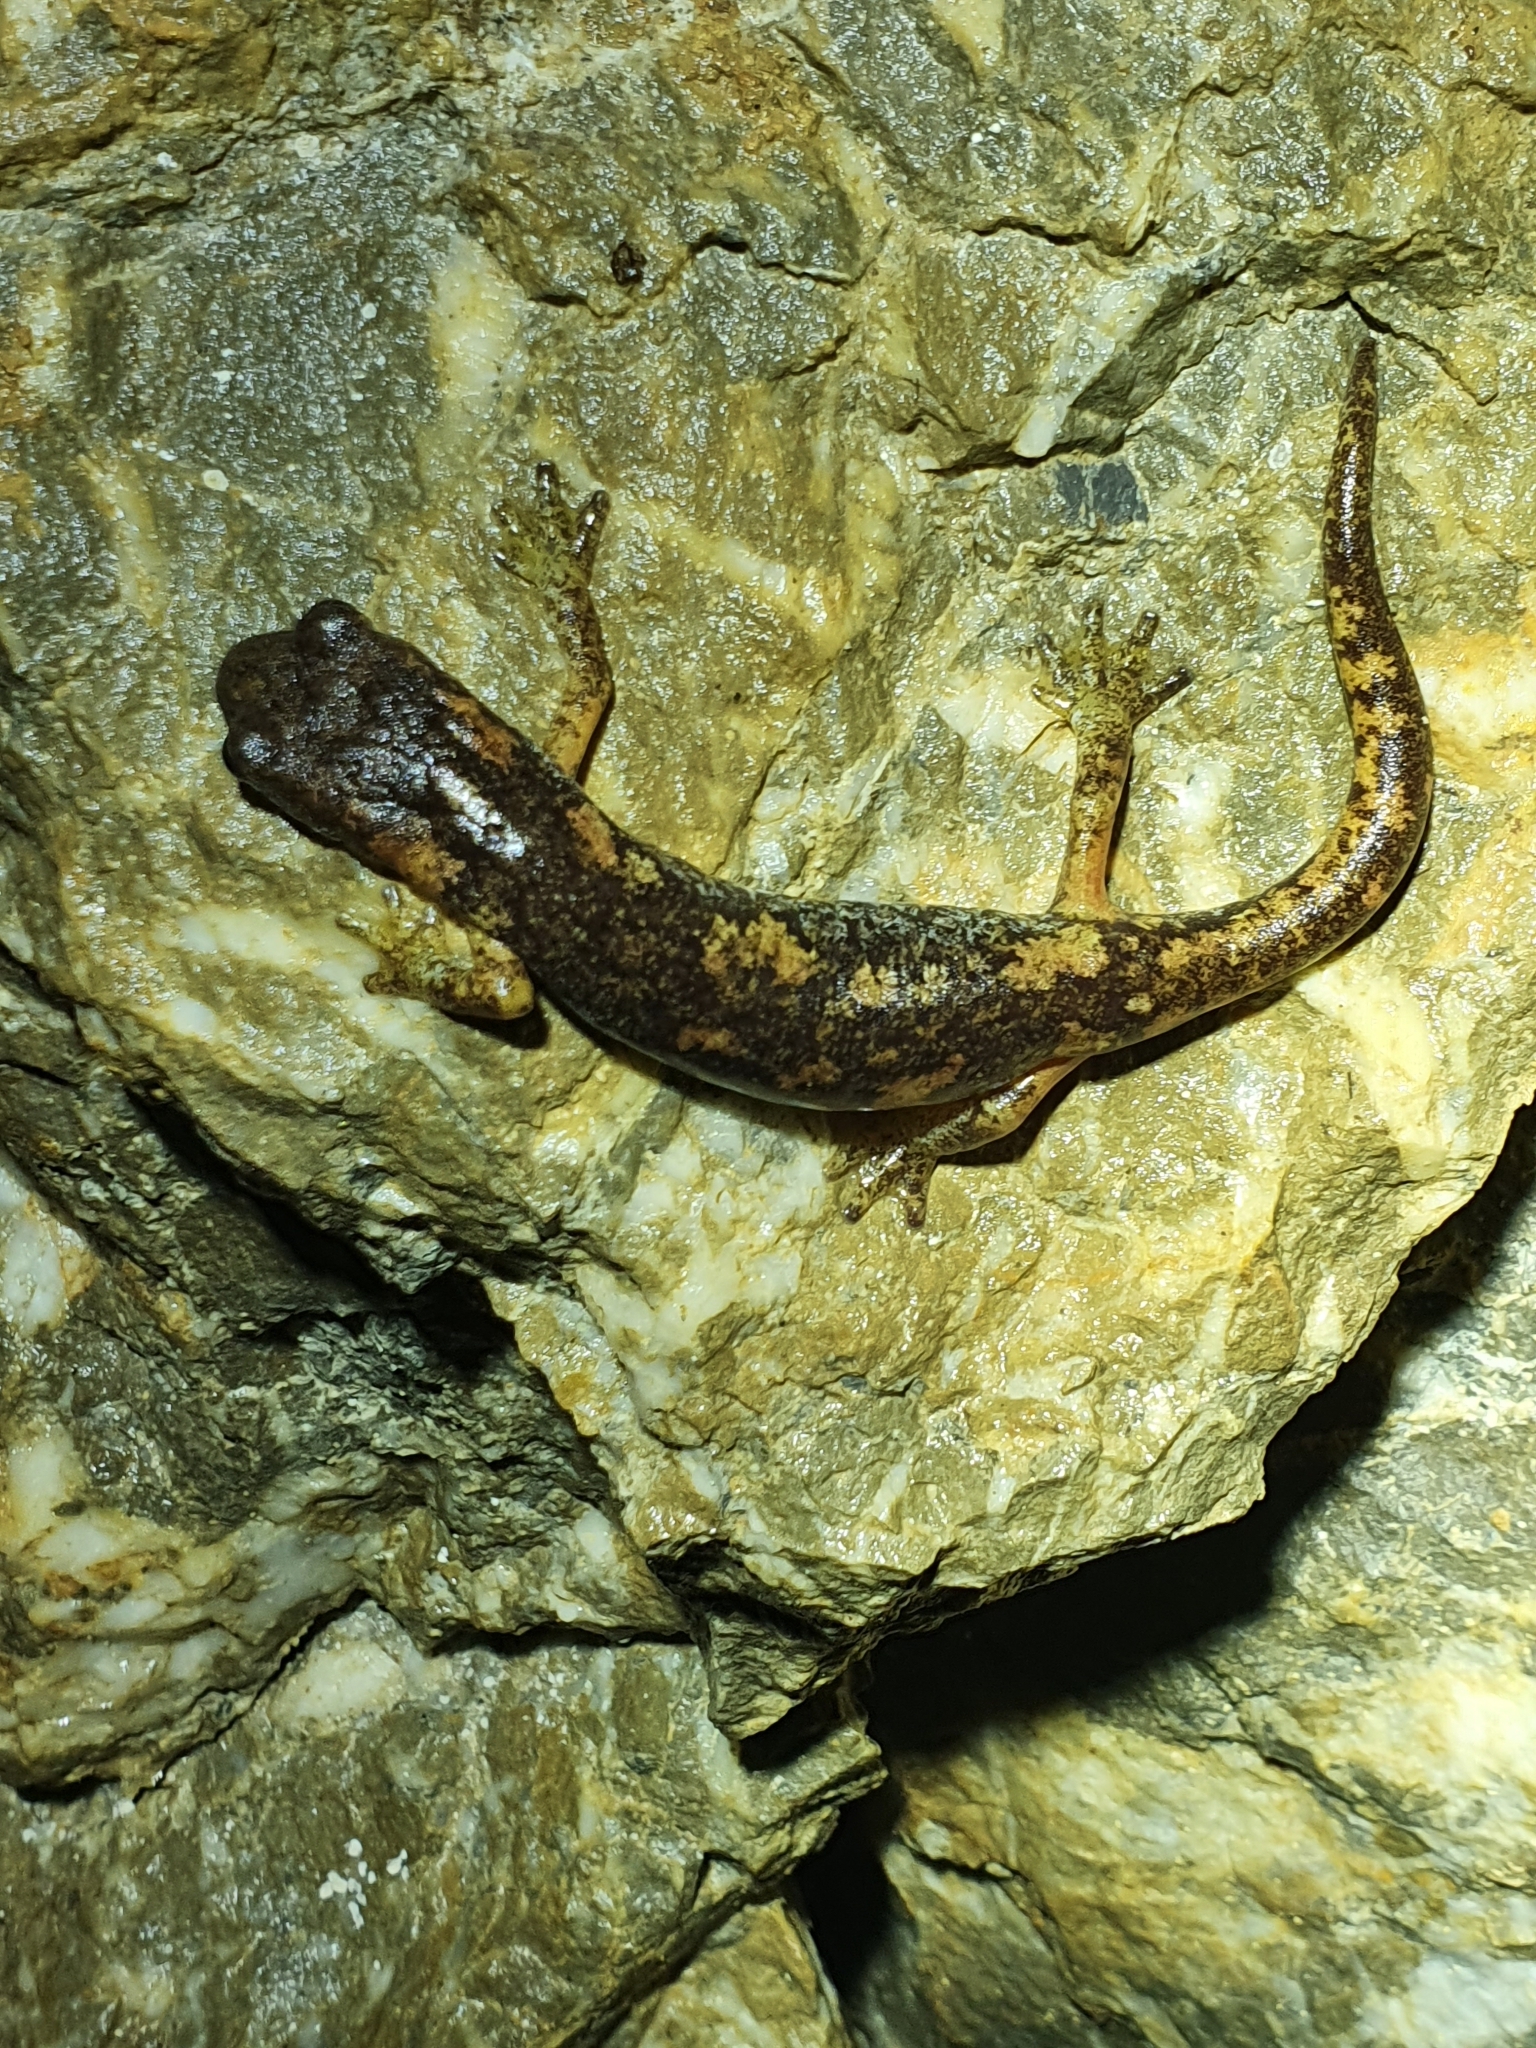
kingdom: Animalia
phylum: Chordata
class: Amphibia
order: Caudata
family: Plethodontidae
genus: Speleomantes
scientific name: Speleomantes ambrosii
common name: Ambrosi's cave salamander
